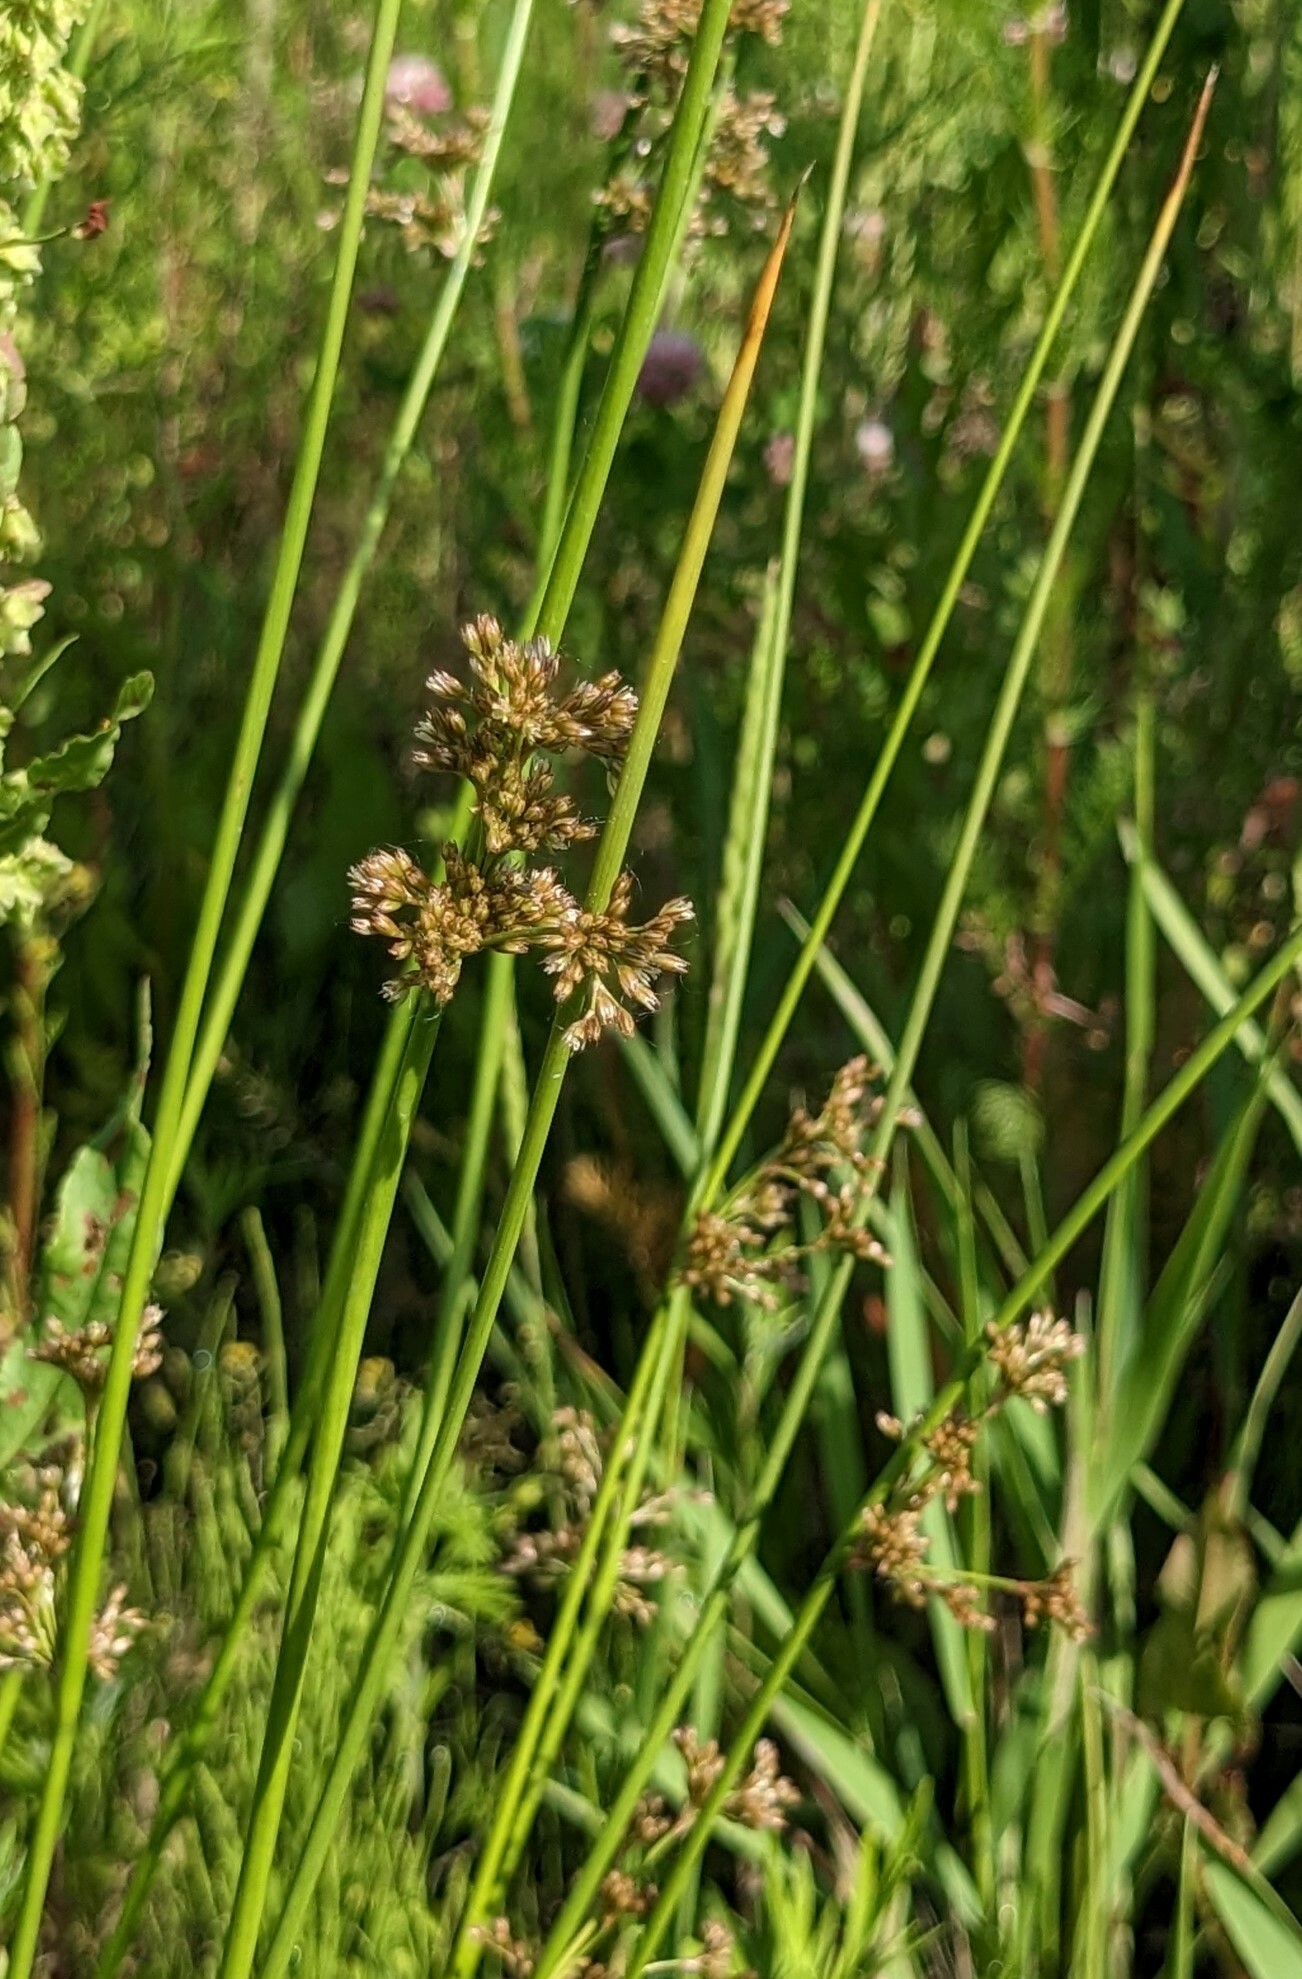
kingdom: Plantae
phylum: Tracheophyta
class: Liliopsida
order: Poales
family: Juncaceae
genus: Juncus
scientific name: Juncus decipiens
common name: Lamp rush
